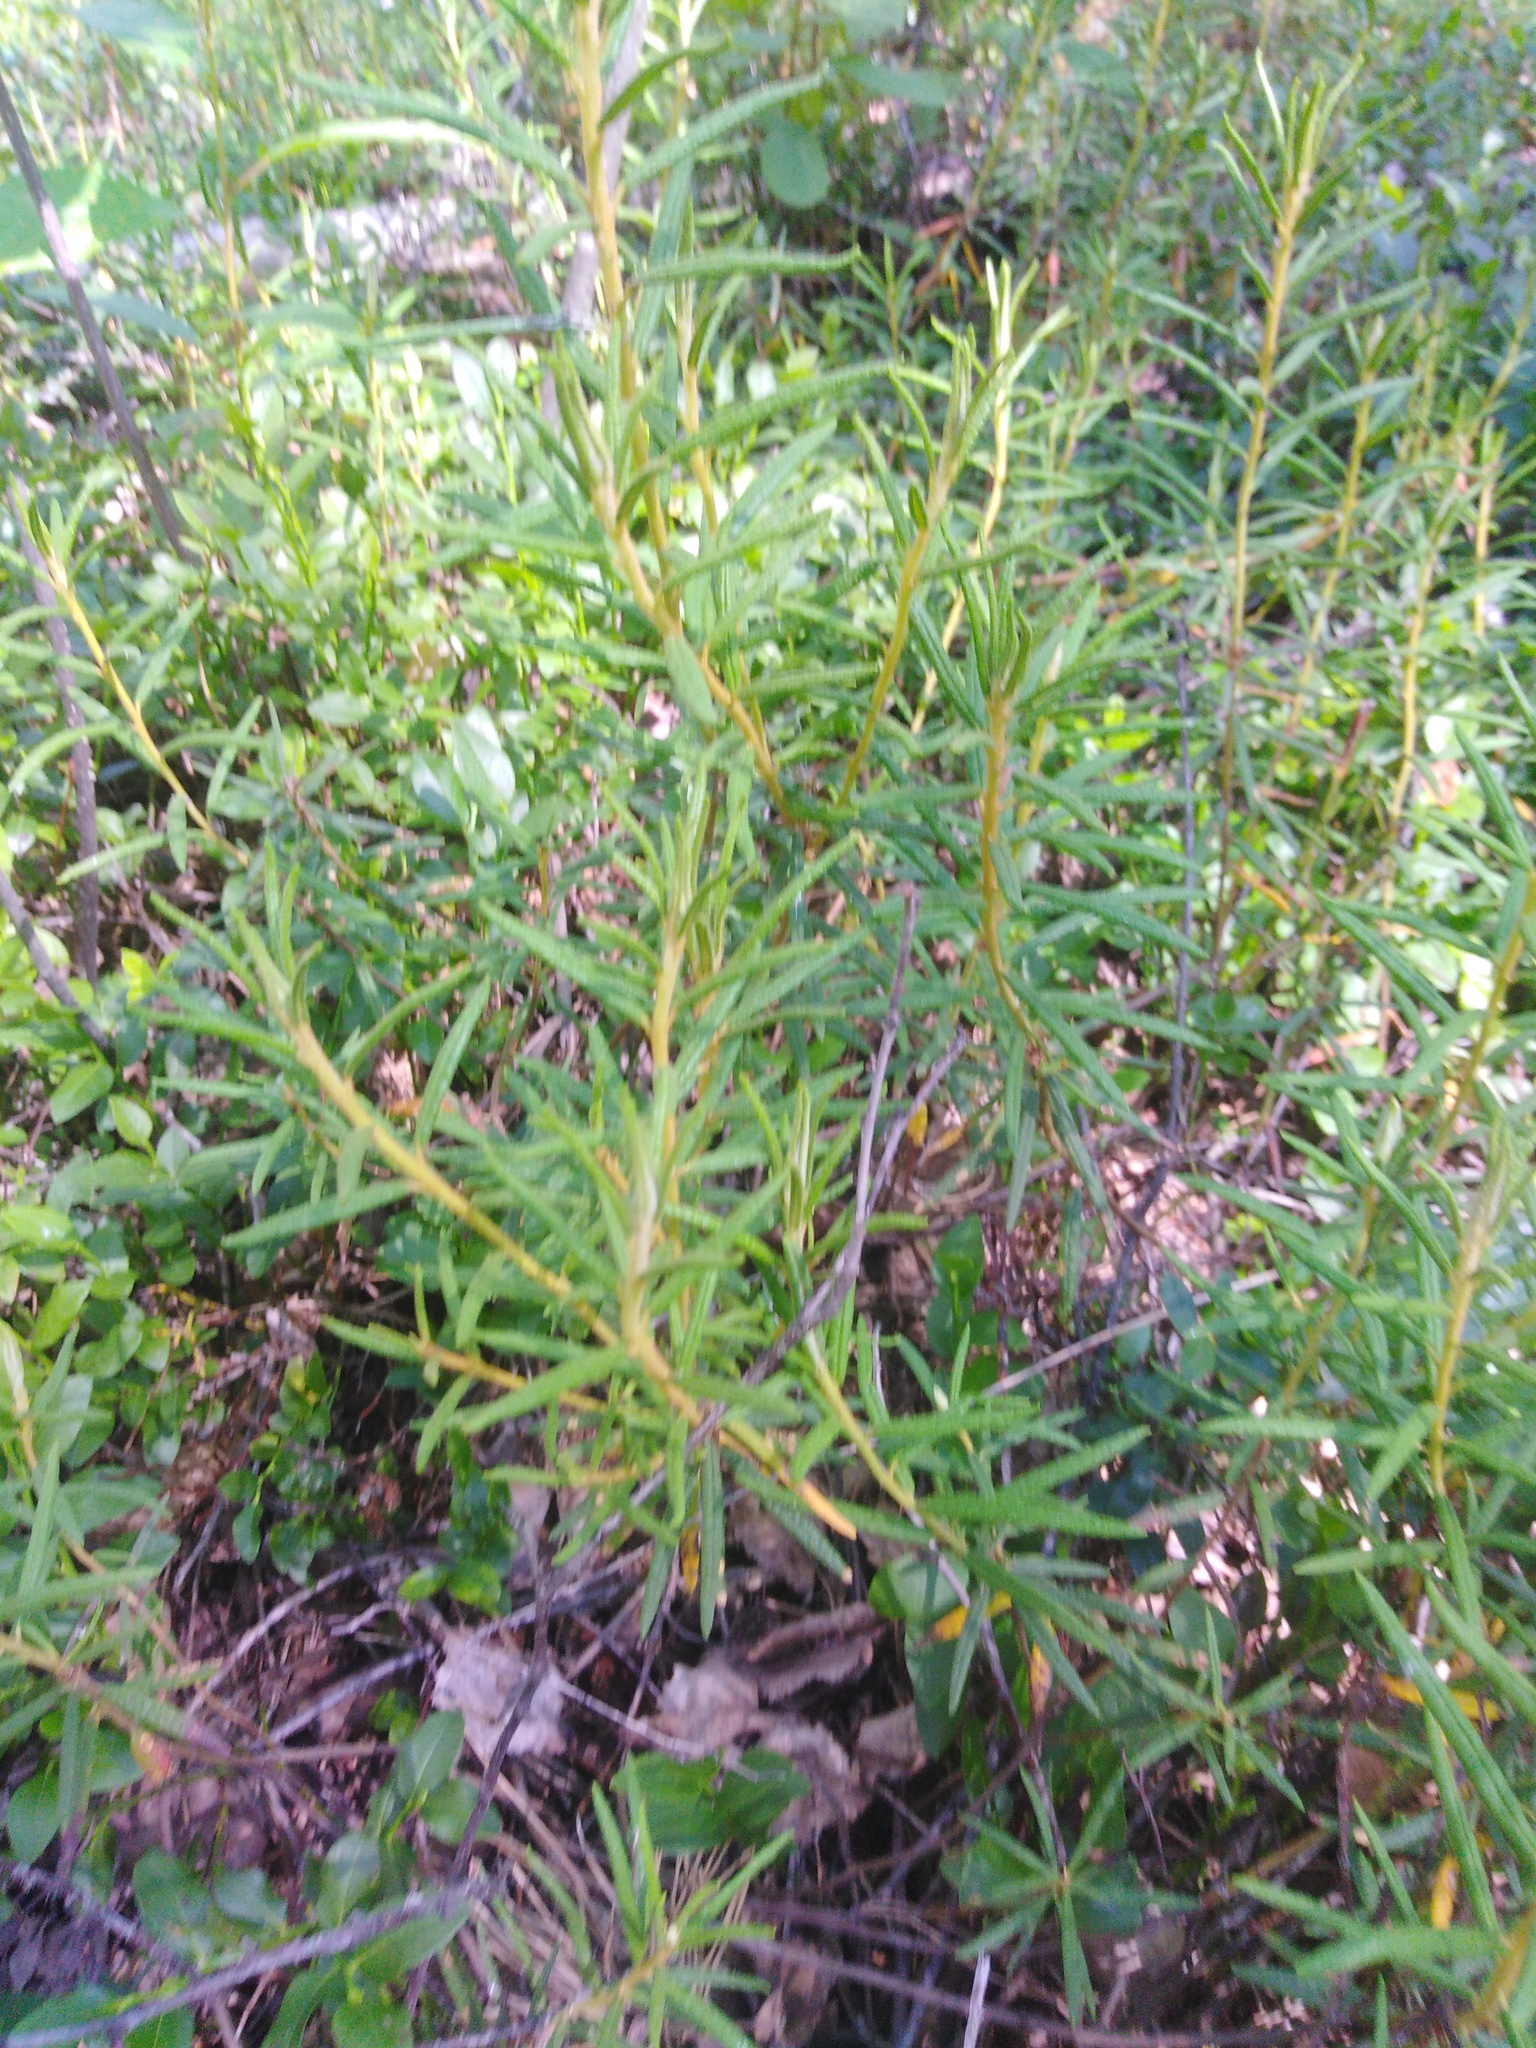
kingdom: Plantae
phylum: Tracheophyta
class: Magnoliopsida
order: Ericales
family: Ericaceae
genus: Rhododendron
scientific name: Rhododendron tomentosum
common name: Marsh labrador tea
